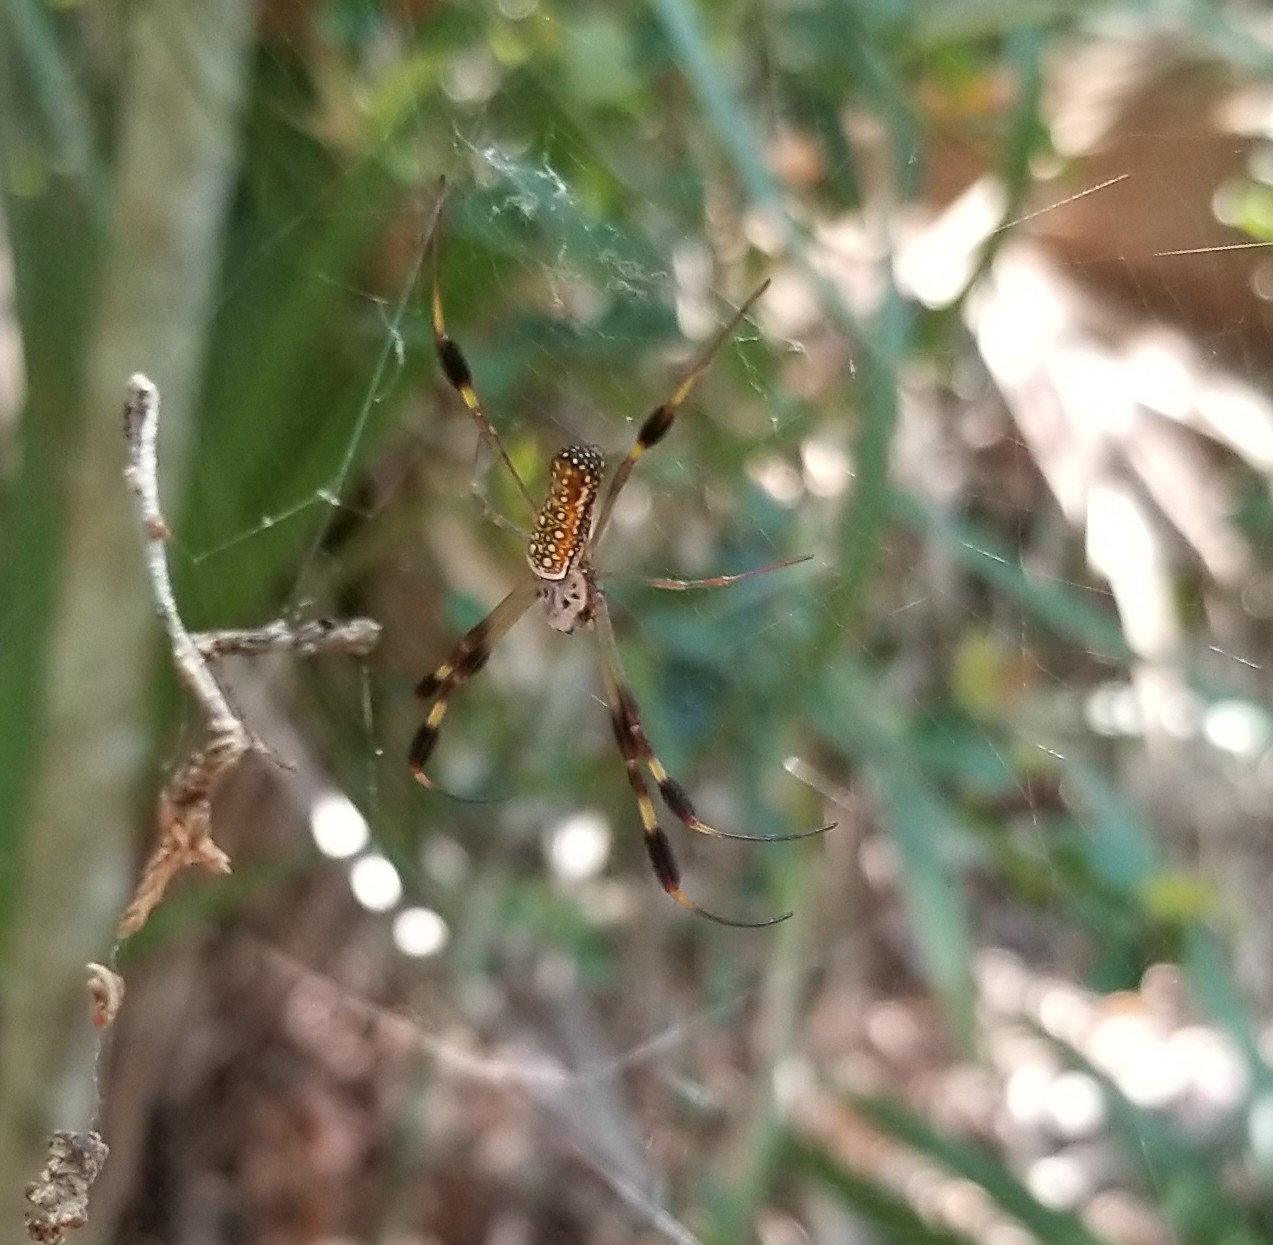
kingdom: Animalia
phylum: Arthropoda
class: Arachnida
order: Araneae
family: Araneidae
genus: Trichonephila
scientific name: Trichonephila clavipes
